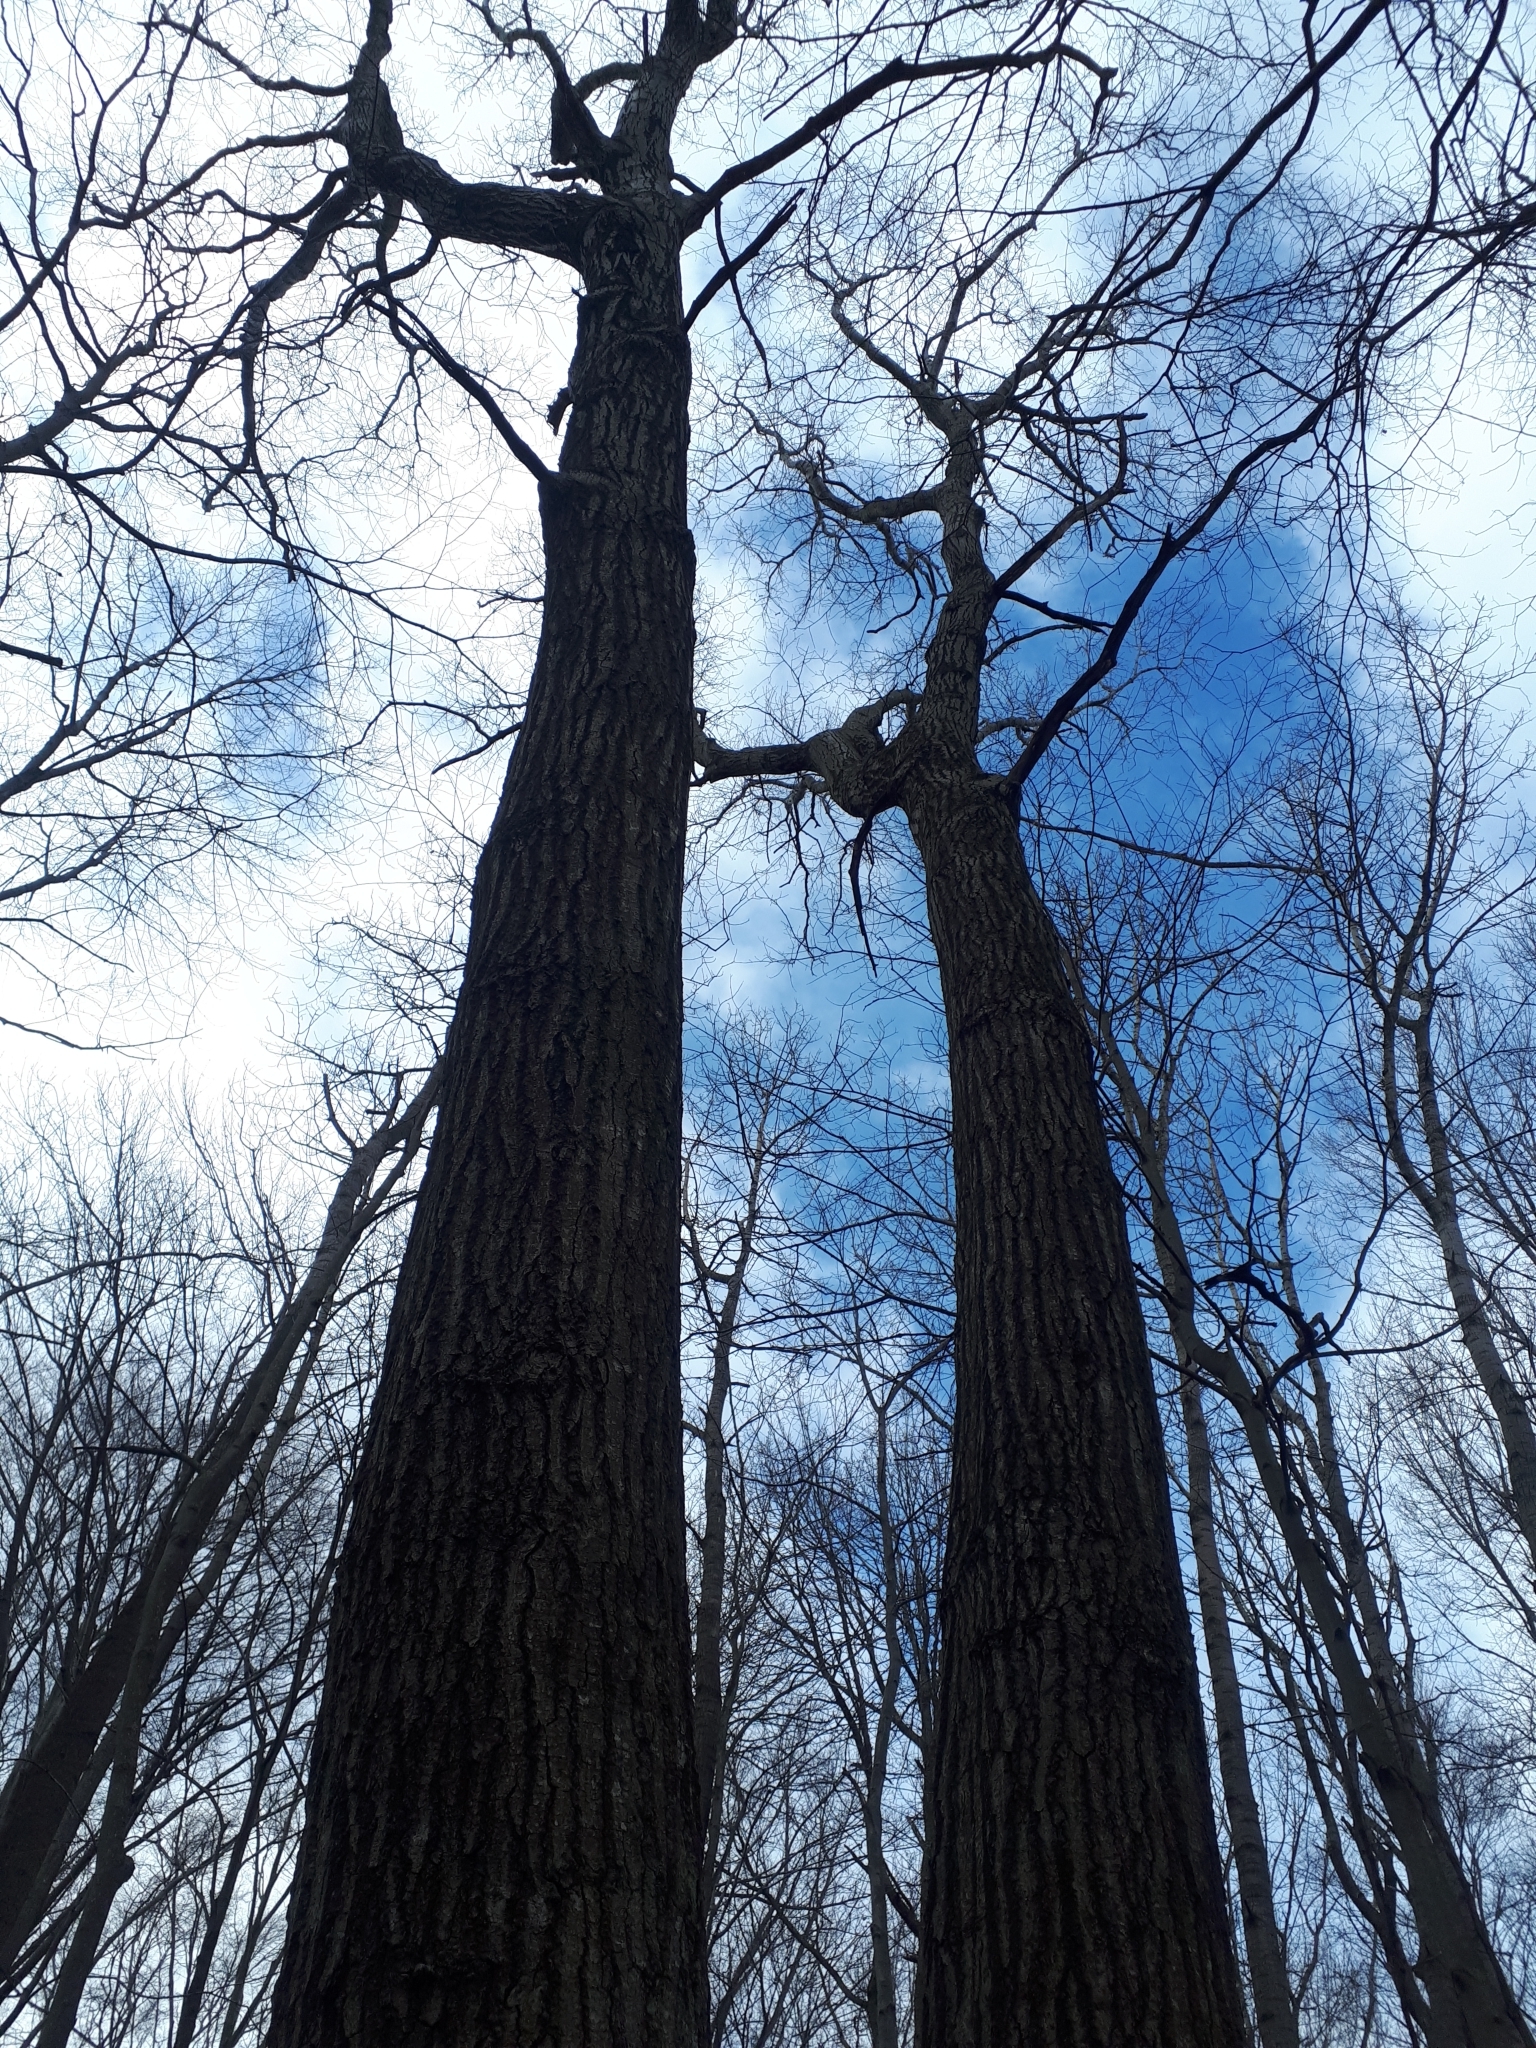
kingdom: Plantae
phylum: Tracheophyta
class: Magnoliopsida
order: Fagales
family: Fagaceae
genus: Quercus
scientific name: Quercus rubra
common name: Red oak
